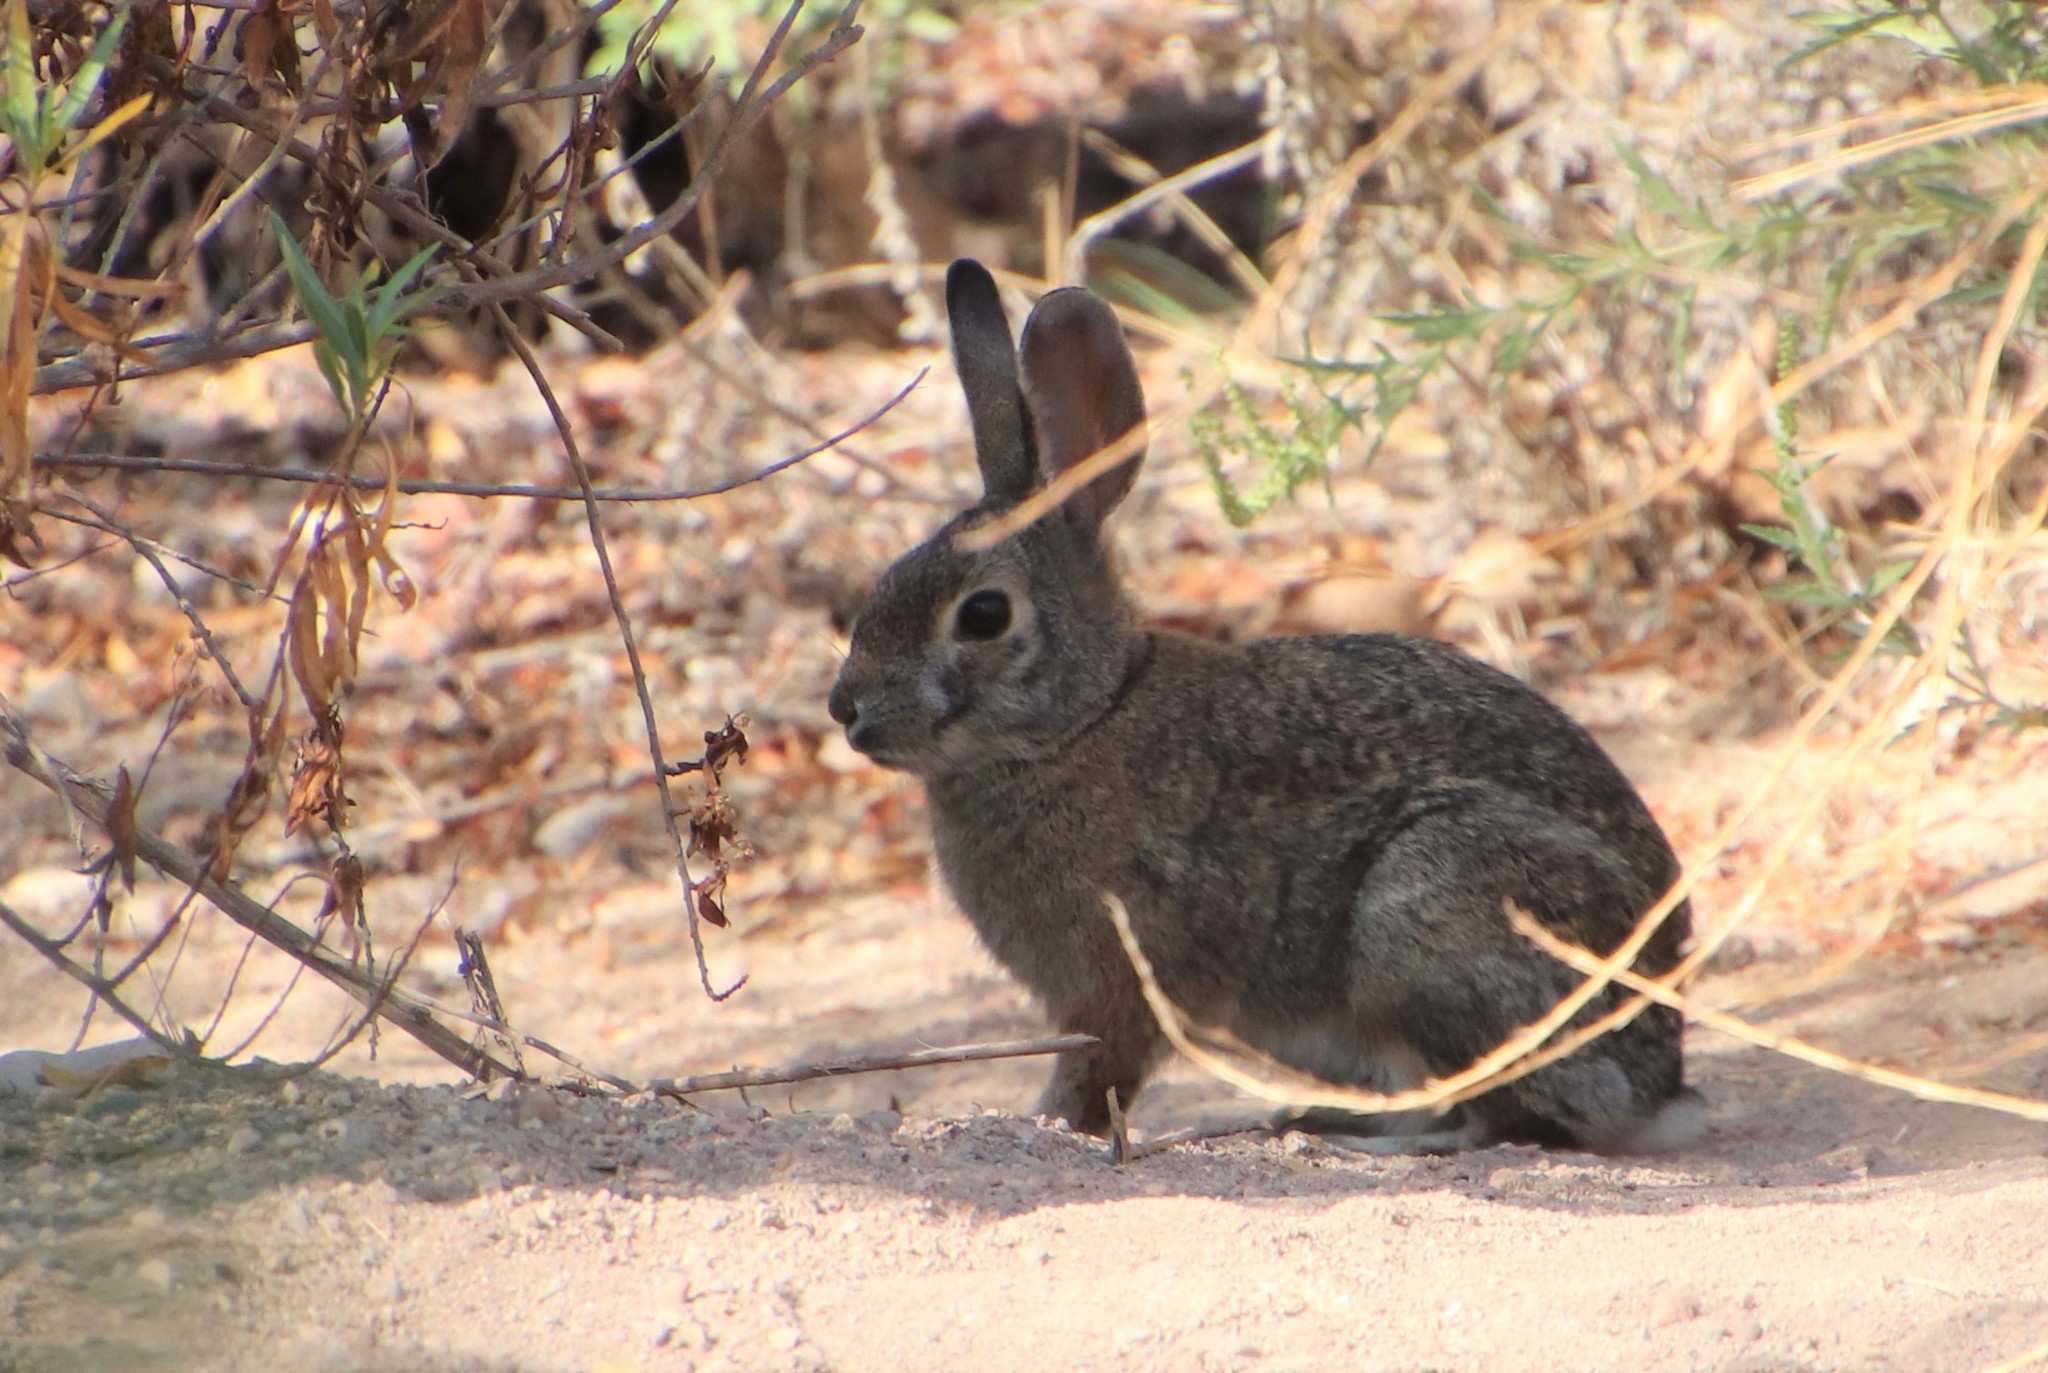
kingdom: Animalia
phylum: Chordata
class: Mammalia
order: Lagomorpha
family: Leporidae
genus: Sylvilagus
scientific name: Sylvilagus audubonii
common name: Desert cottontail
